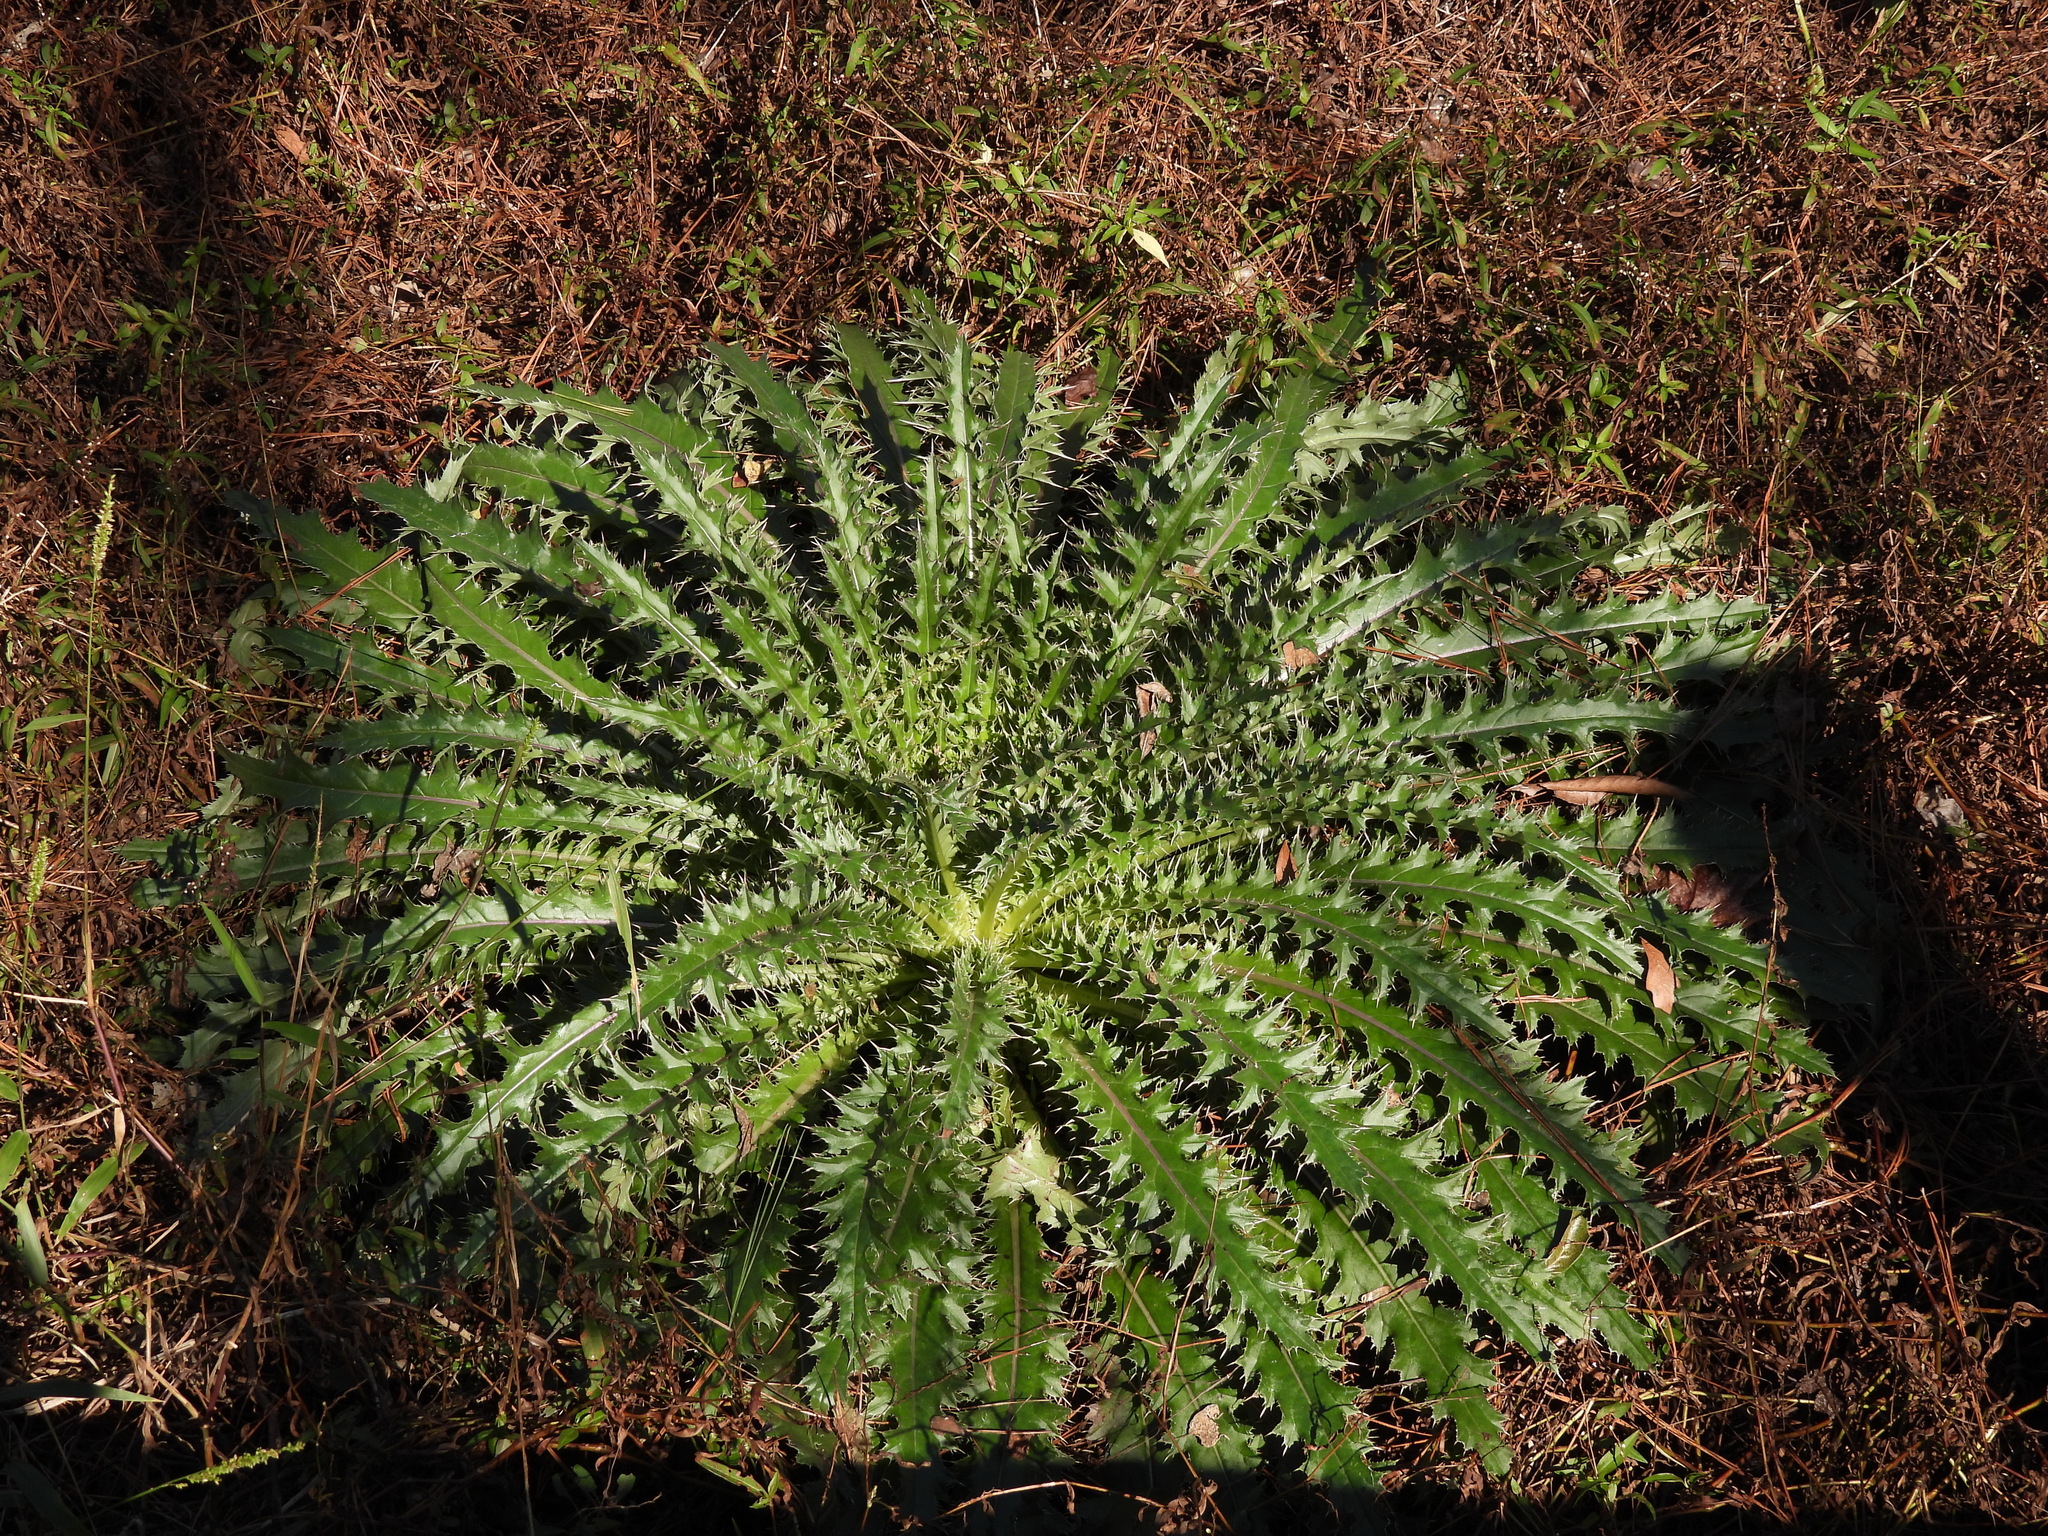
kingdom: Plantae
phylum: Tracheophyta
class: Magnoliopsida
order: Asterales
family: Asteraceae
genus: Cirsium
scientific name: Cirsium horridulum
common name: Bristly thistle
